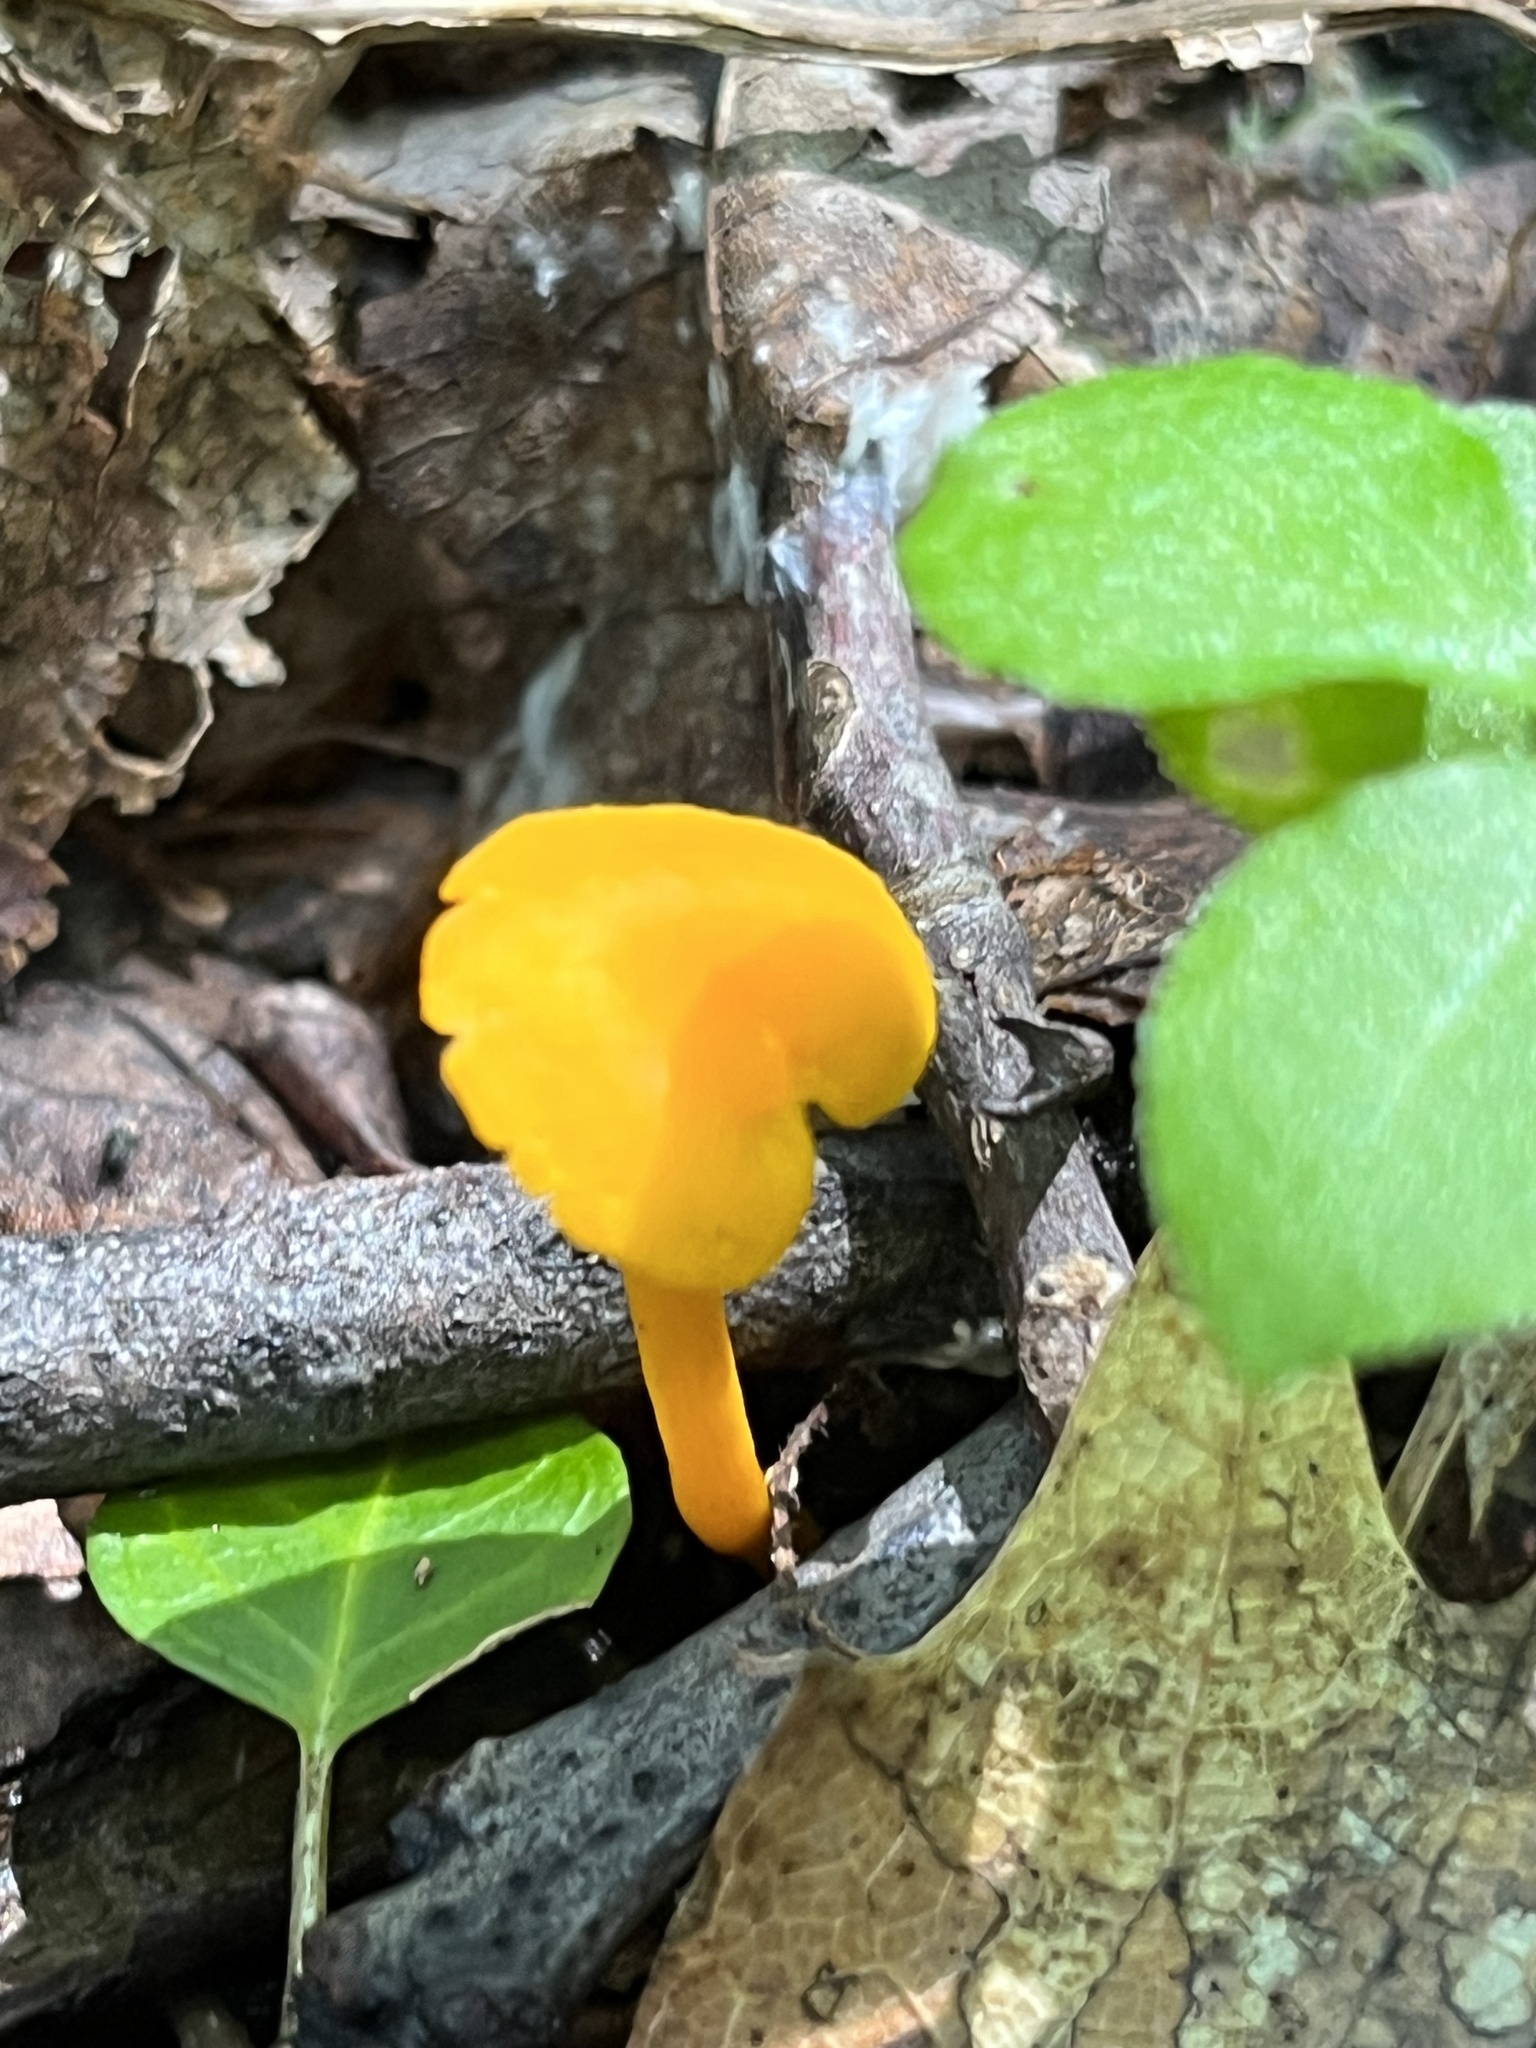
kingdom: Fungi
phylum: Basidiomycota
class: Agaricomycetes
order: Cantharellales
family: Hydnaceae
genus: Cantharellus
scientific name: Cantharellus minor
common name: Small chanterelle
